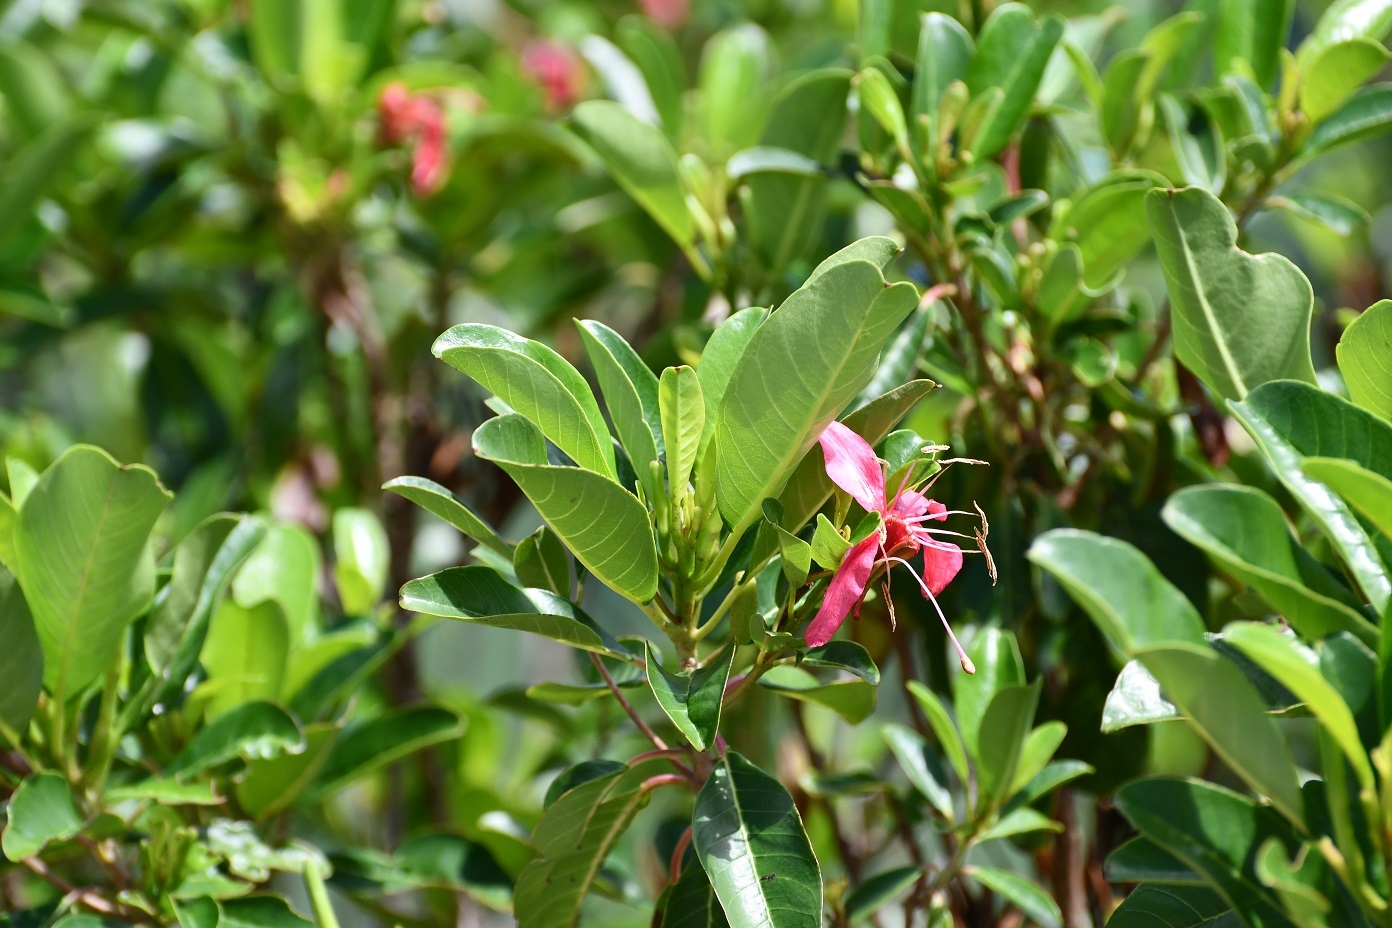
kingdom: Plantae
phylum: Tracheophyta
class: Magnoliopsida
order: Myrtales
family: Onagraceae
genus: Hauya
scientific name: Hauya elegans
